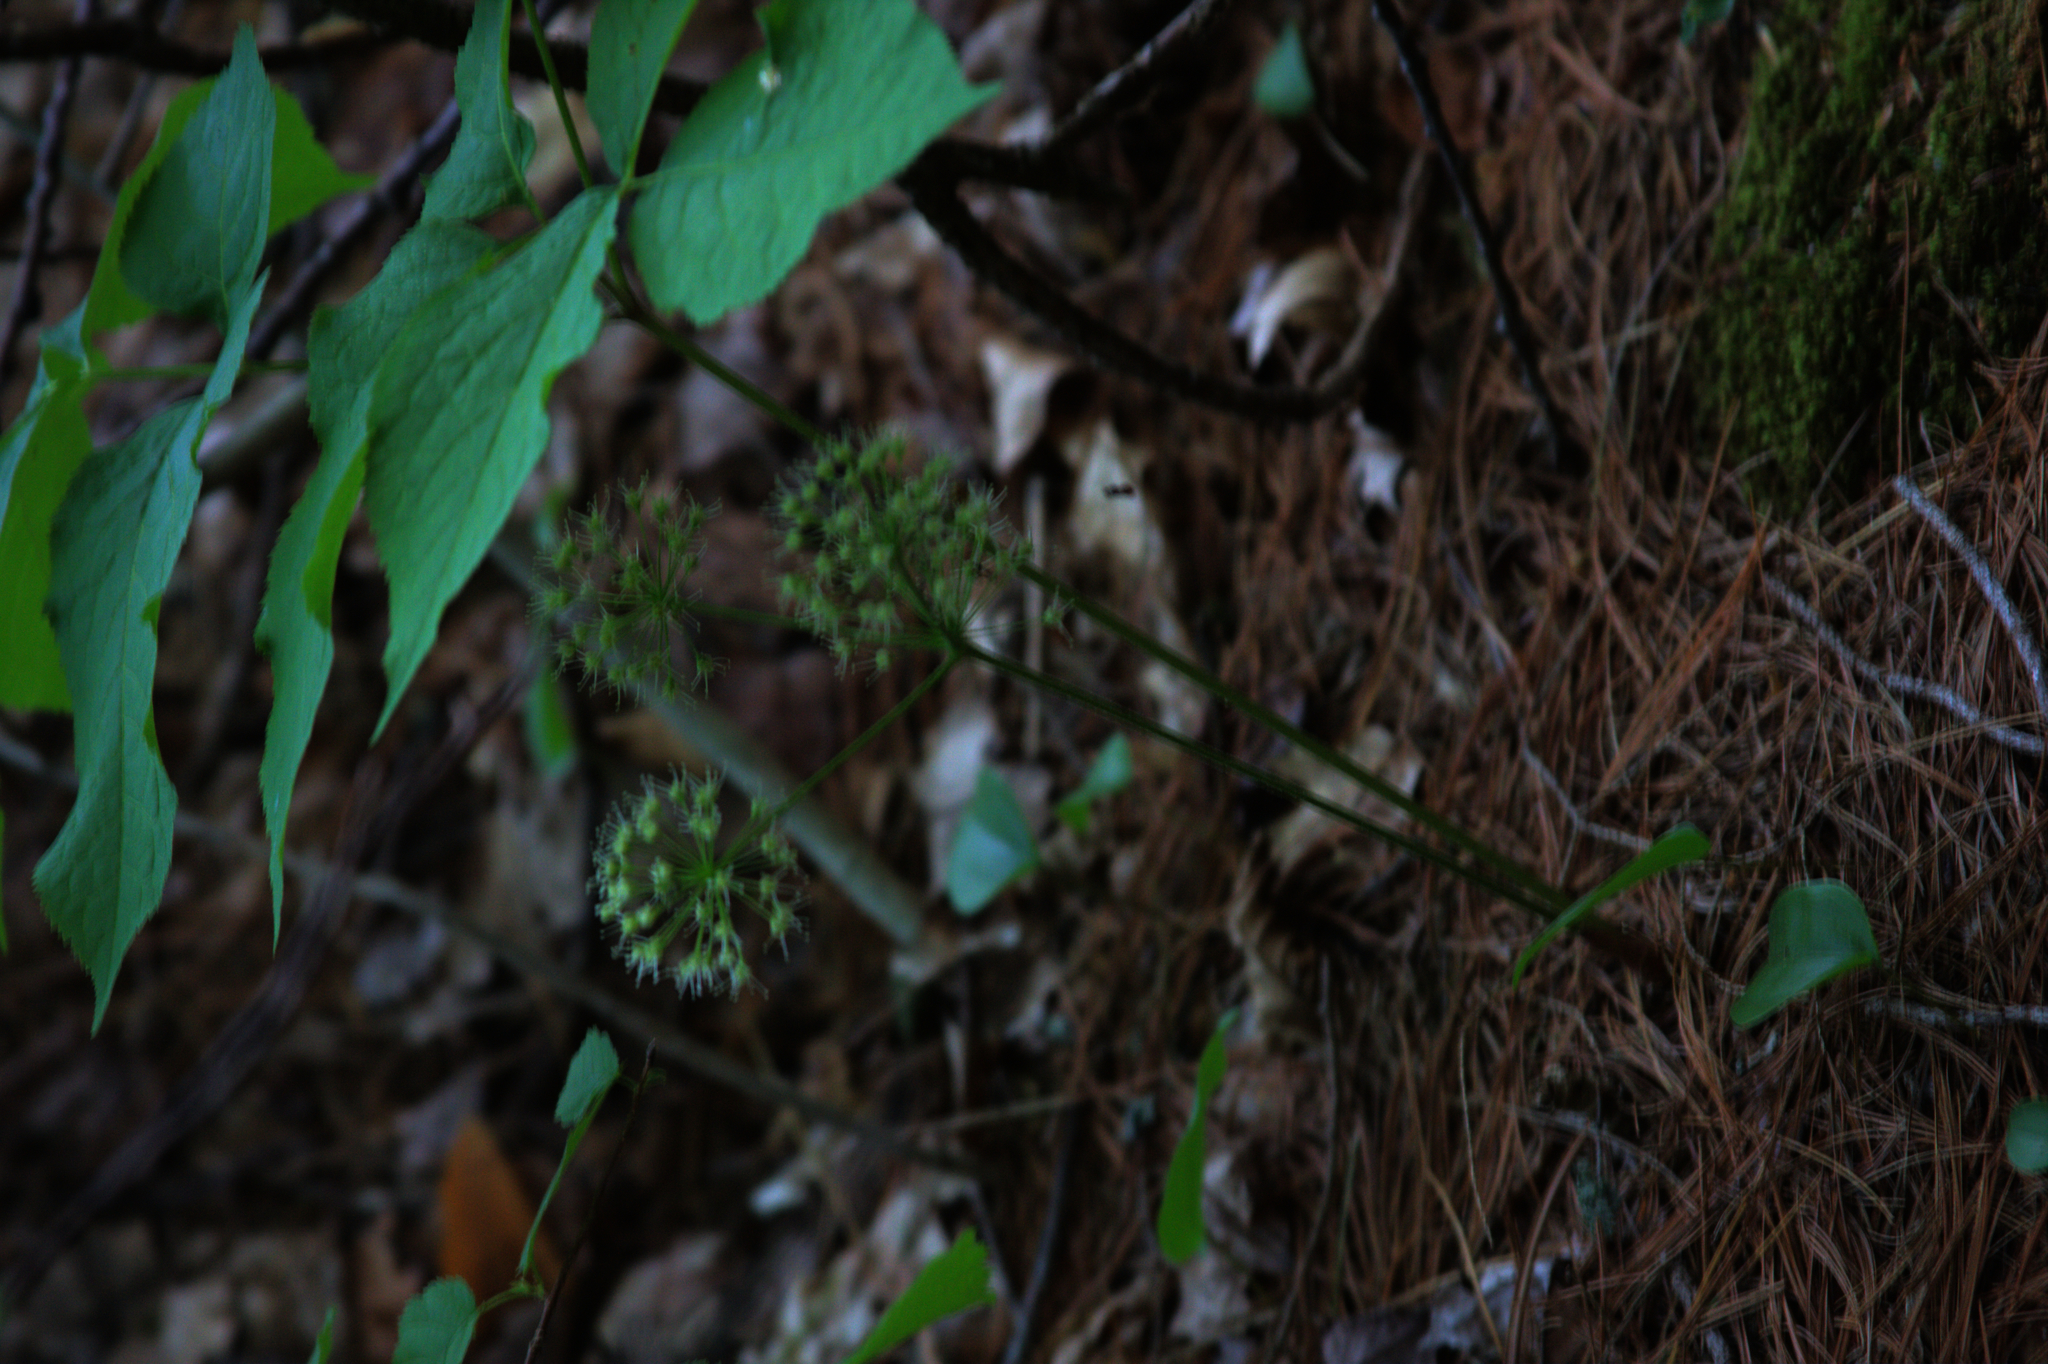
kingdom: Plantae
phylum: Tracheophyta
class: Magnoliopsida
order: Apiales
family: Araliaceae
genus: Aralia
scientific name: Aralia nudicaulis
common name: Wild sarsaparilla
